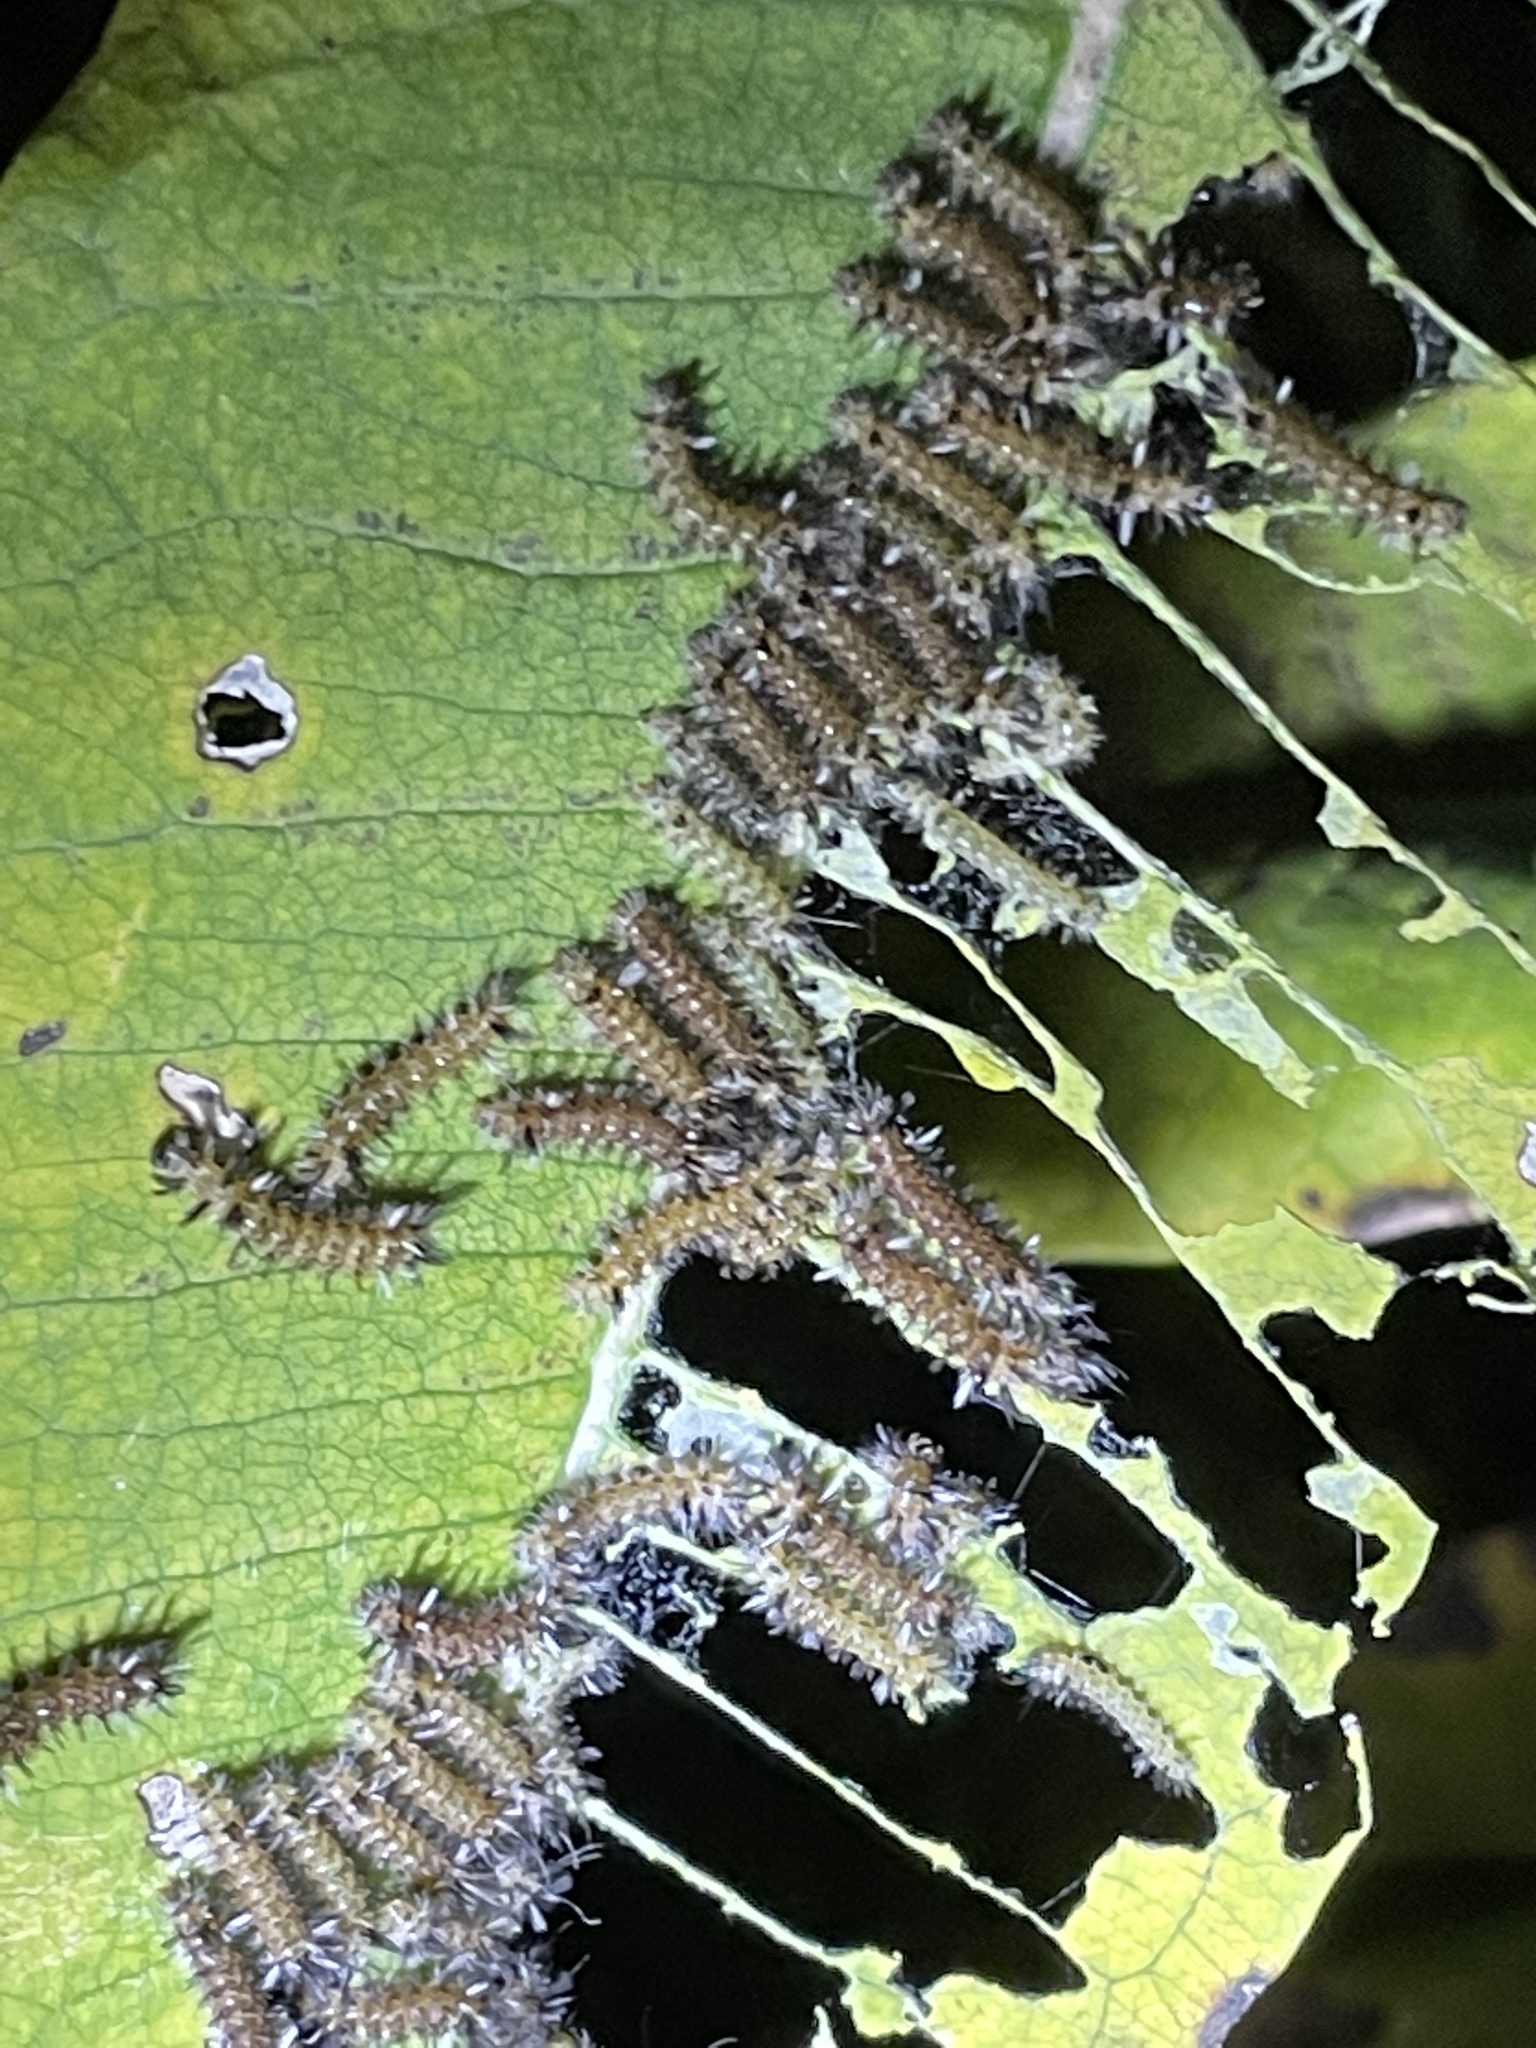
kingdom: Animalia
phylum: Arthropoda
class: Insecta
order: Lepidoptera
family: Erebidae
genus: Euchaetes
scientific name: Euchaetes egle
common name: Milkweed tussock moth
